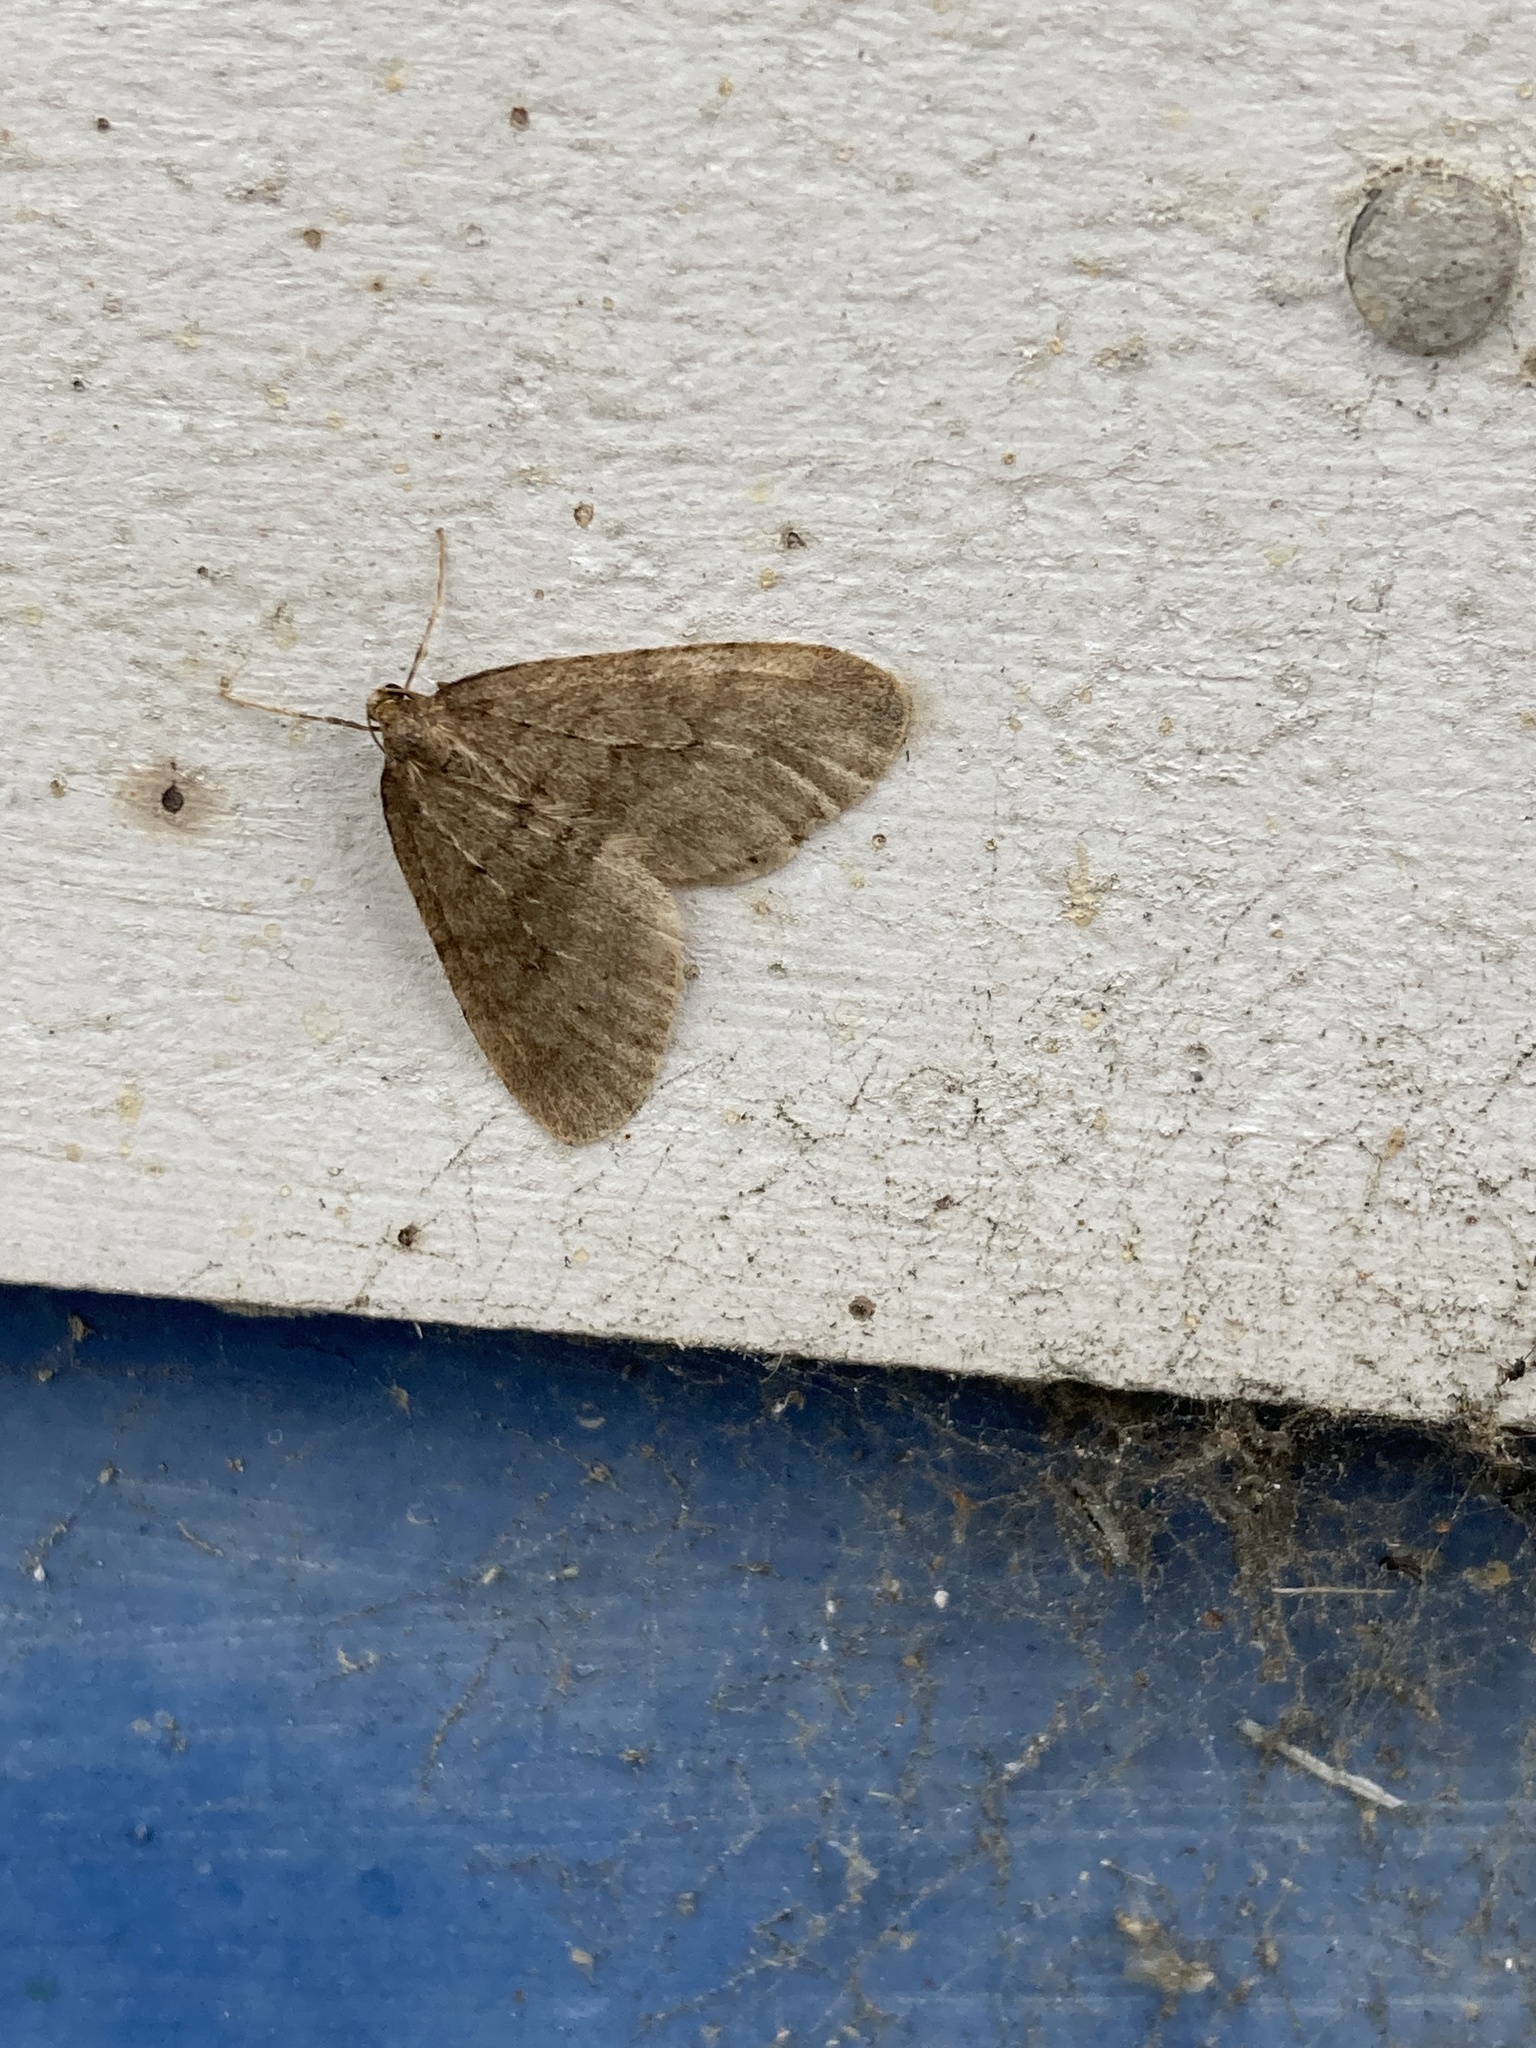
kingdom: Animalia
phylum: Arthropoda
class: Insecta
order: Lepidoptera
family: Geometridae
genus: Operophtera
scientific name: Operophtera brumata
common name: Winter moth
